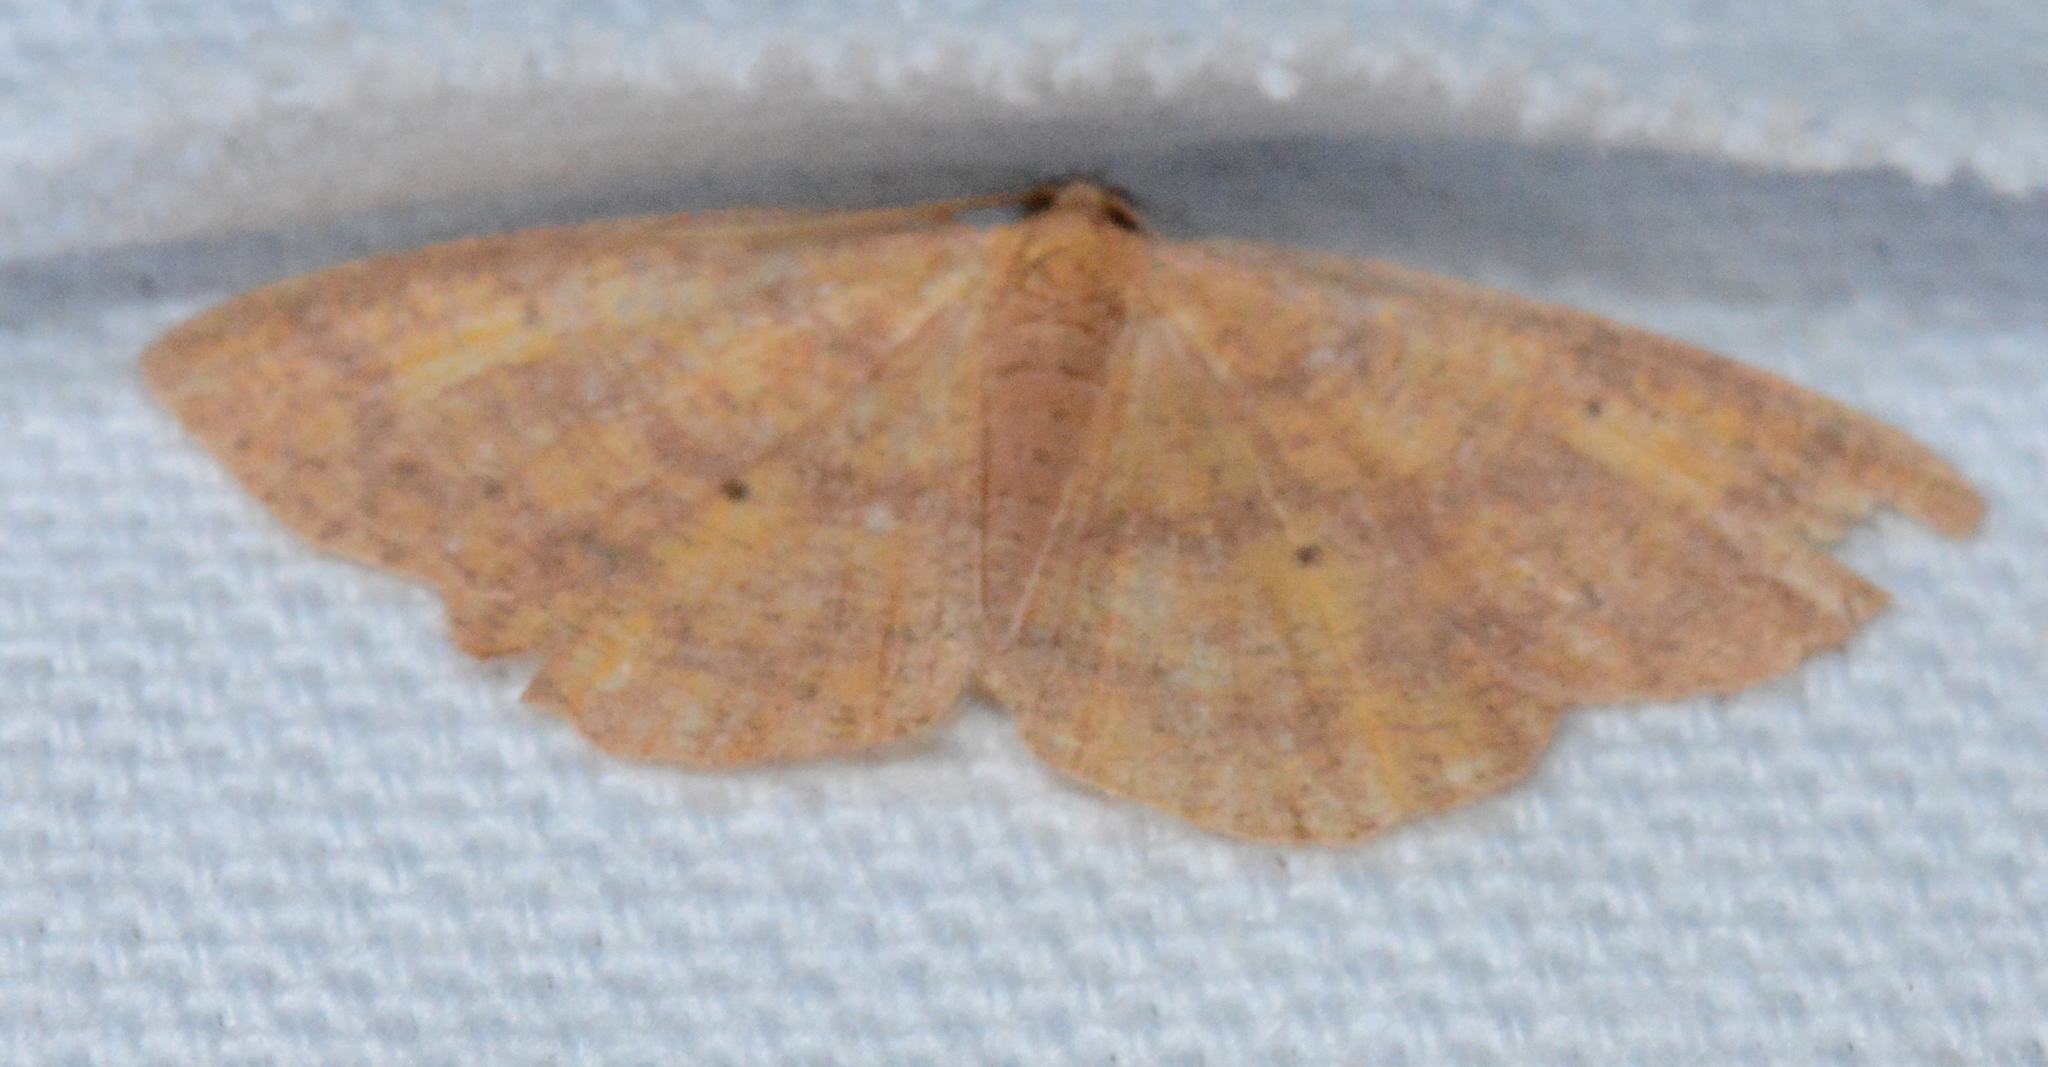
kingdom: Animalia
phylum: Arthropoda
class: Insecta
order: Lepidoptera
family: Geometridae
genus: Ilexia
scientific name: Ilexia intractata
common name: Black-dotted ruddy moth
